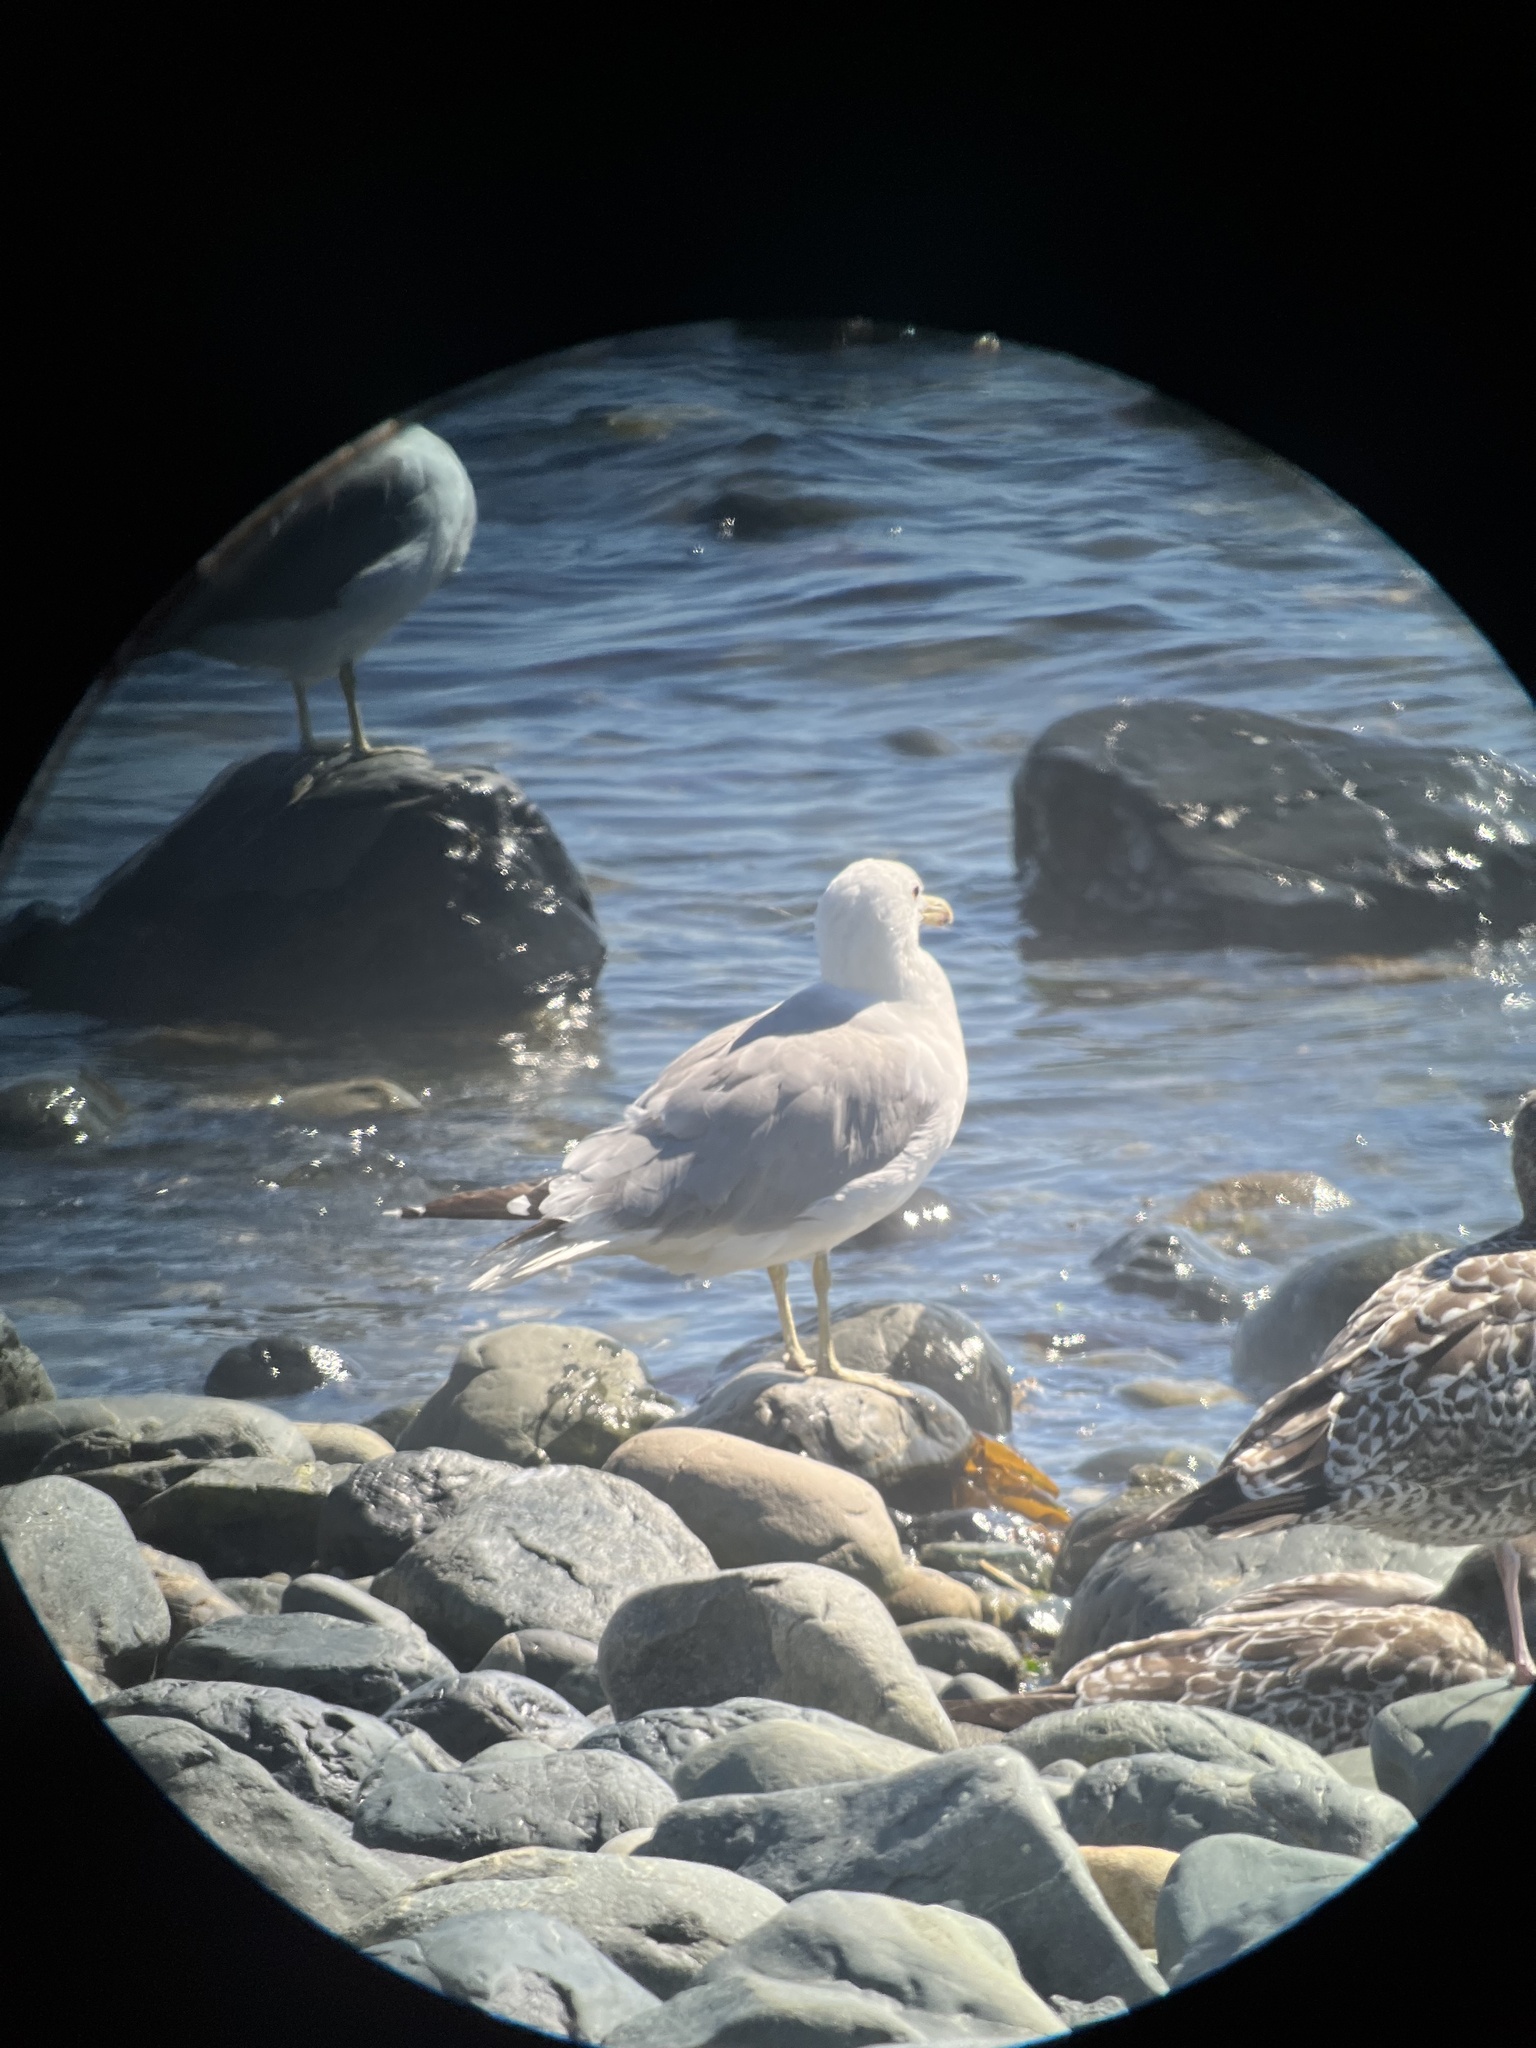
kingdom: Animalia
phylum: Chordata
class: Aves
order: Charadriiformes
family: Laridae
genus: Larus
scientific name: Larus californicus
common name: California gull
